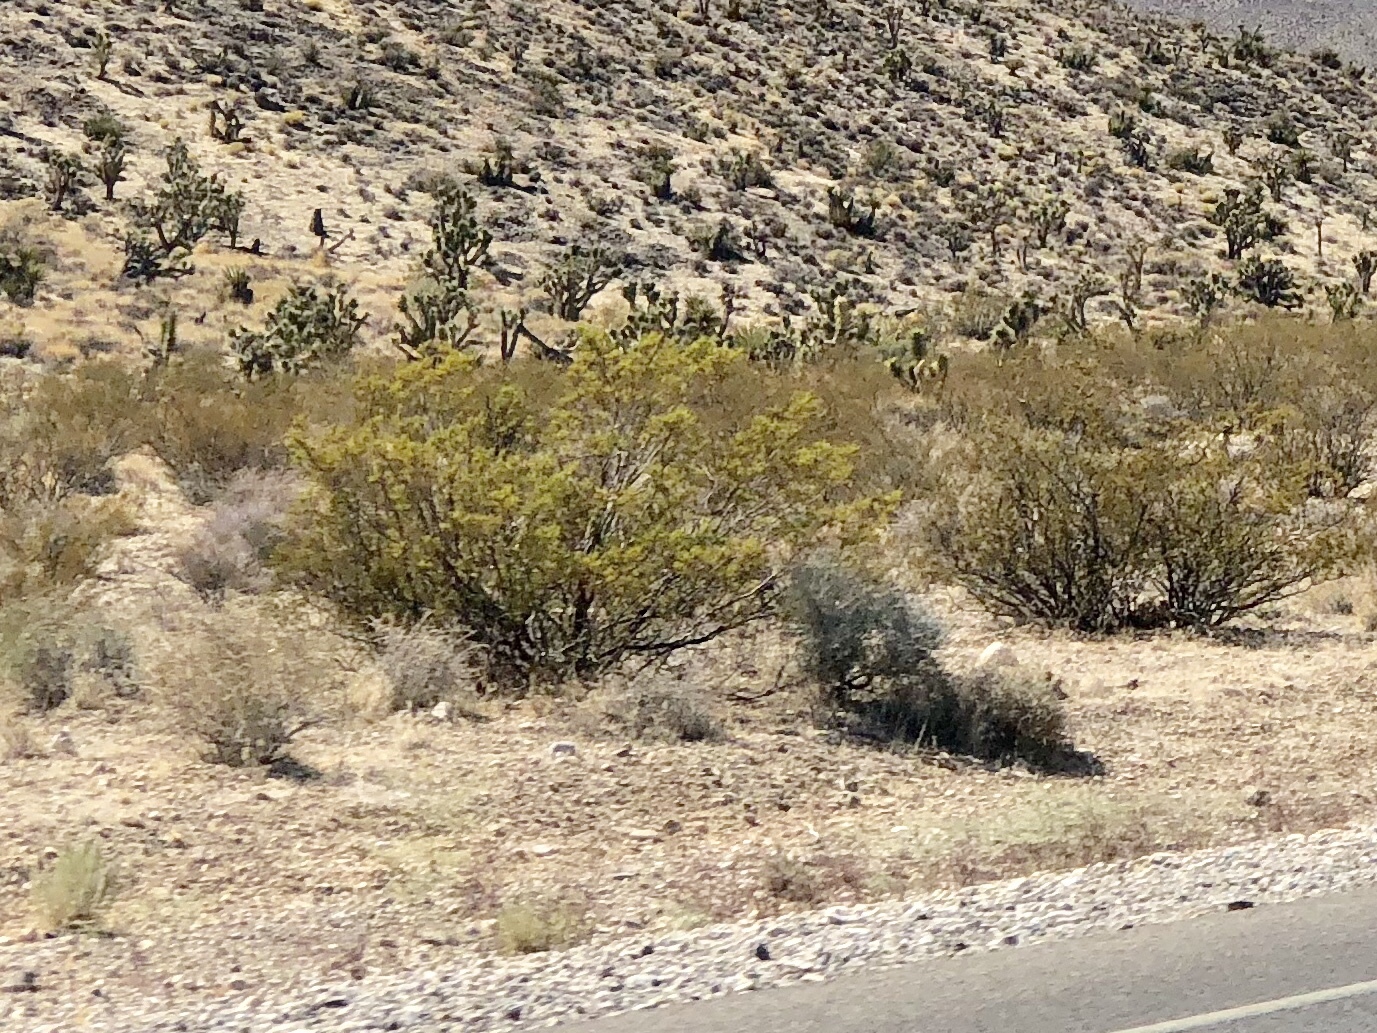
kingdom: Plantae
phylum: Tracheophyta
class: Magnoliopsida
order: Zygophyllales
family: Zygophyllaceae
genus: Larrea
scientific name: Larrea tridentata
